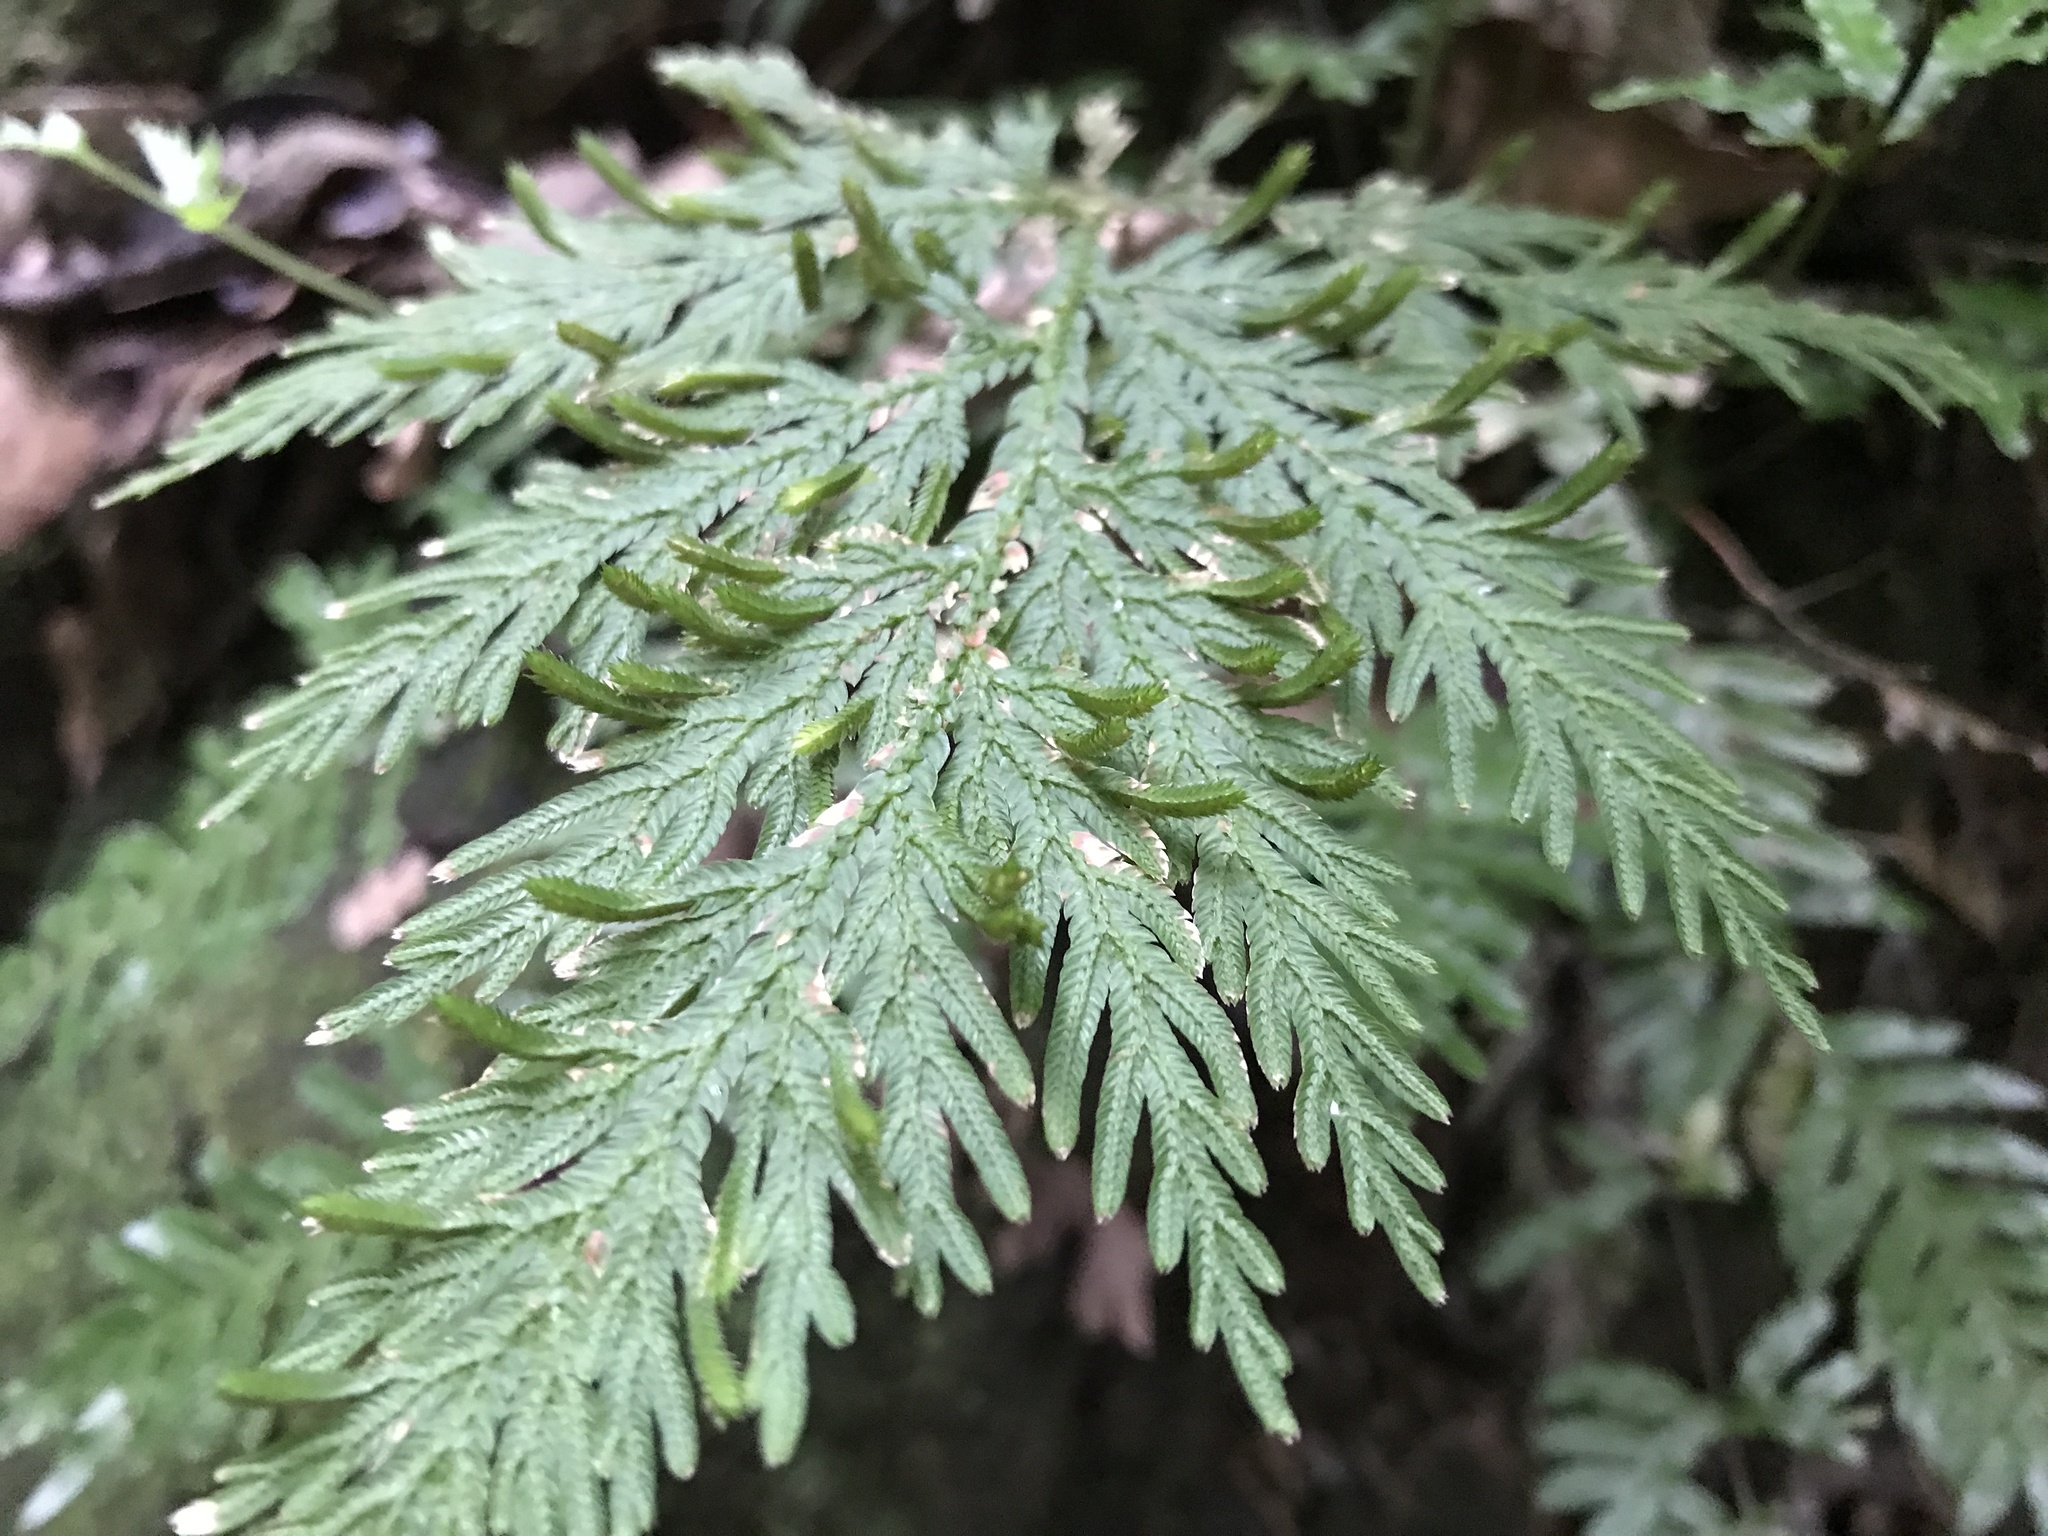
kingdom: Plantae
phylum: Tracheophyta
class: Lycopodiopsida
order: Selaginellales
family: Selaginellaceae
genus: Selaginella
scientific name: Selaginella moellendorffii
